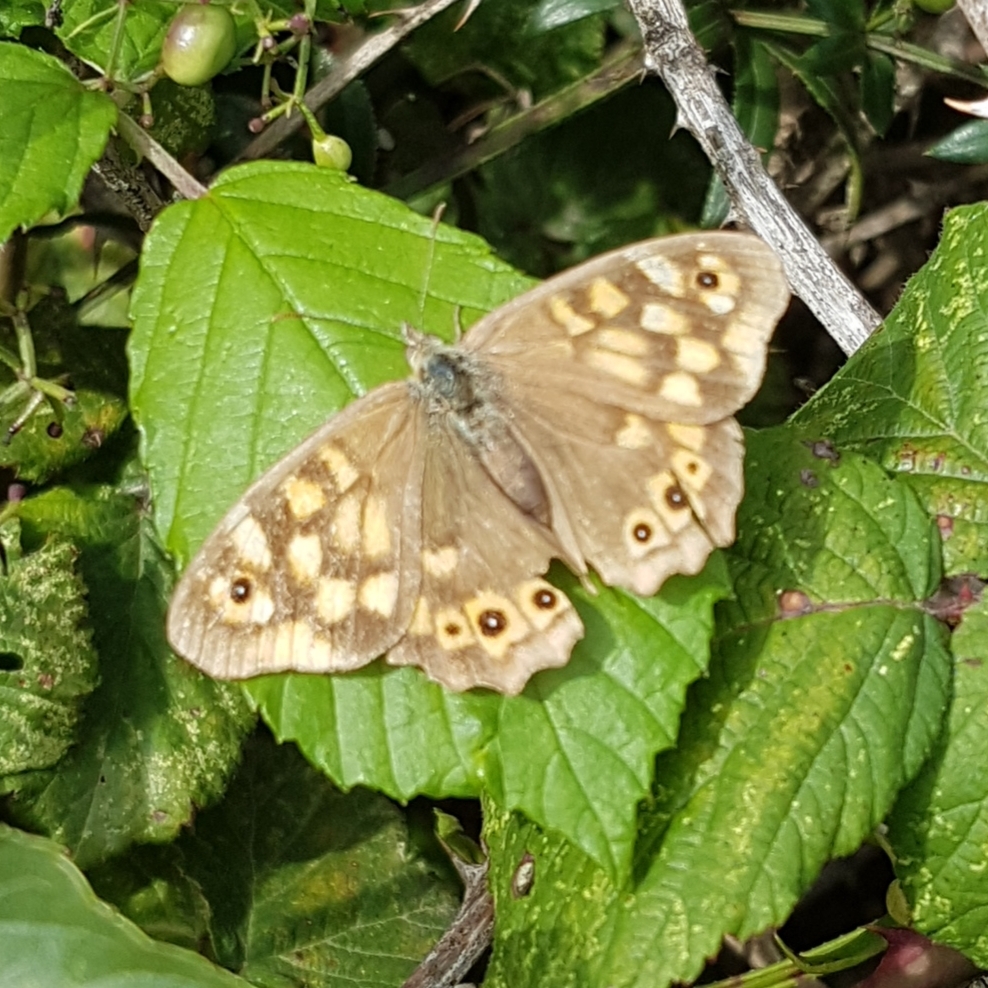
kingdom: Animalia
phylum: Arthropoda
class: Insecta
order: Lepidoptera
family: Nymphalidae
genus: Pararge
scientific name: Pararge aegeria
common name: Speckled wood
